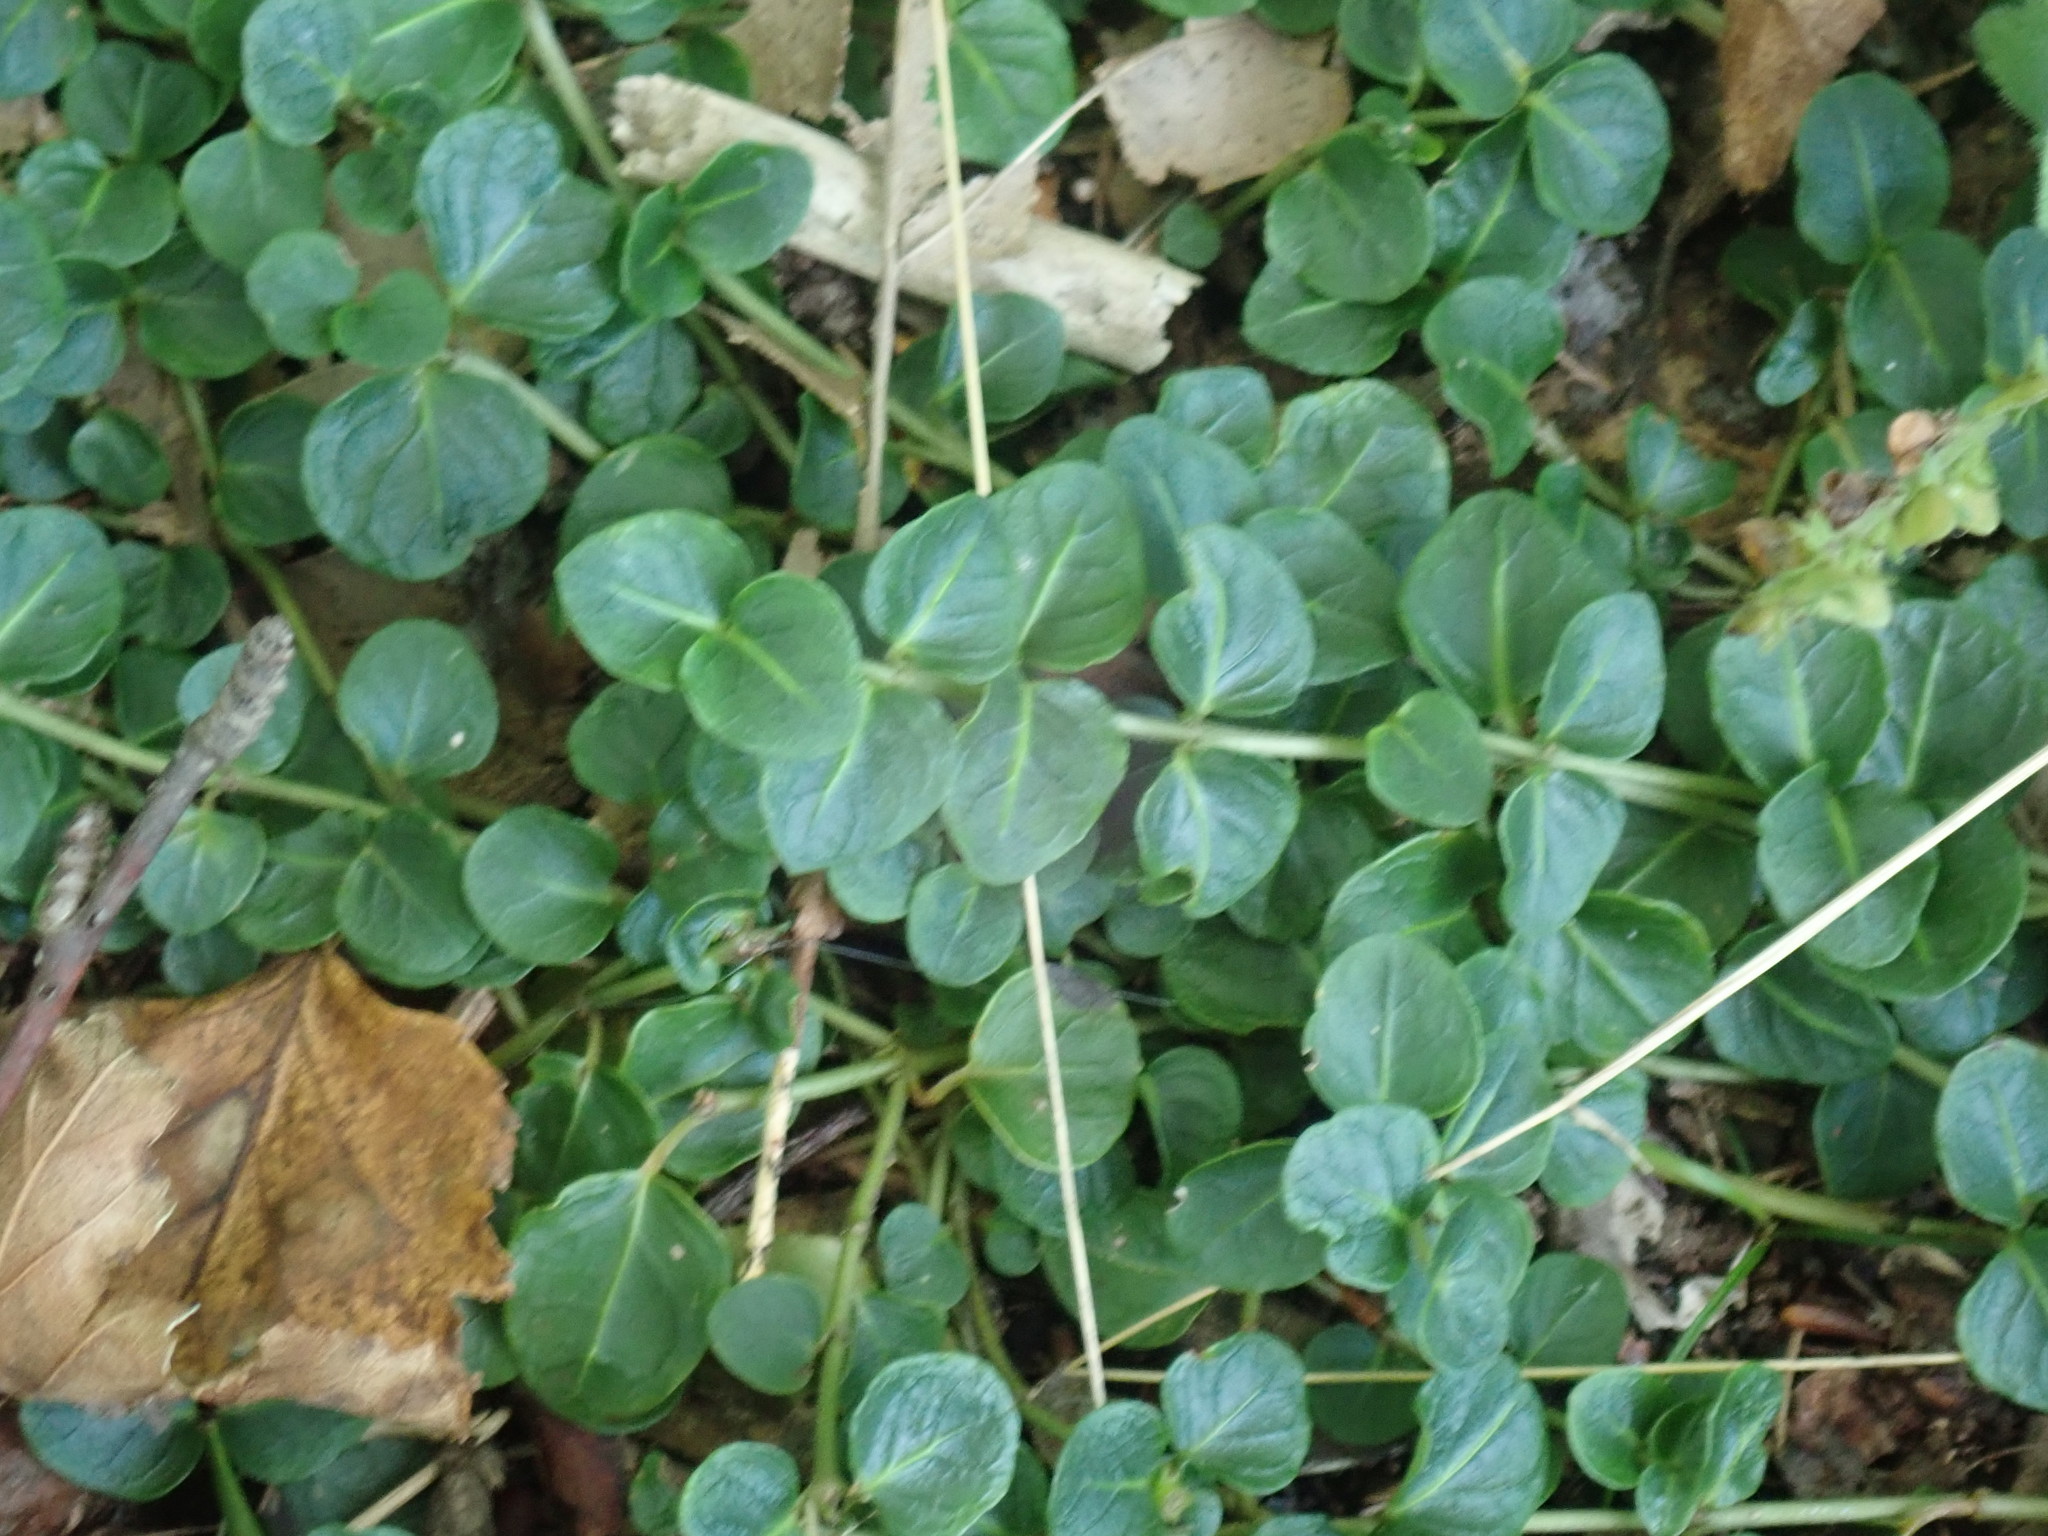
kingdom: Plantae
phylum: Tracheophyta
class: Magnoliopsida
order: Gentianales
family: Rubiaceae
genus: Mitchella
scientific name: Mitchella repens
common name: Partridge-berry
